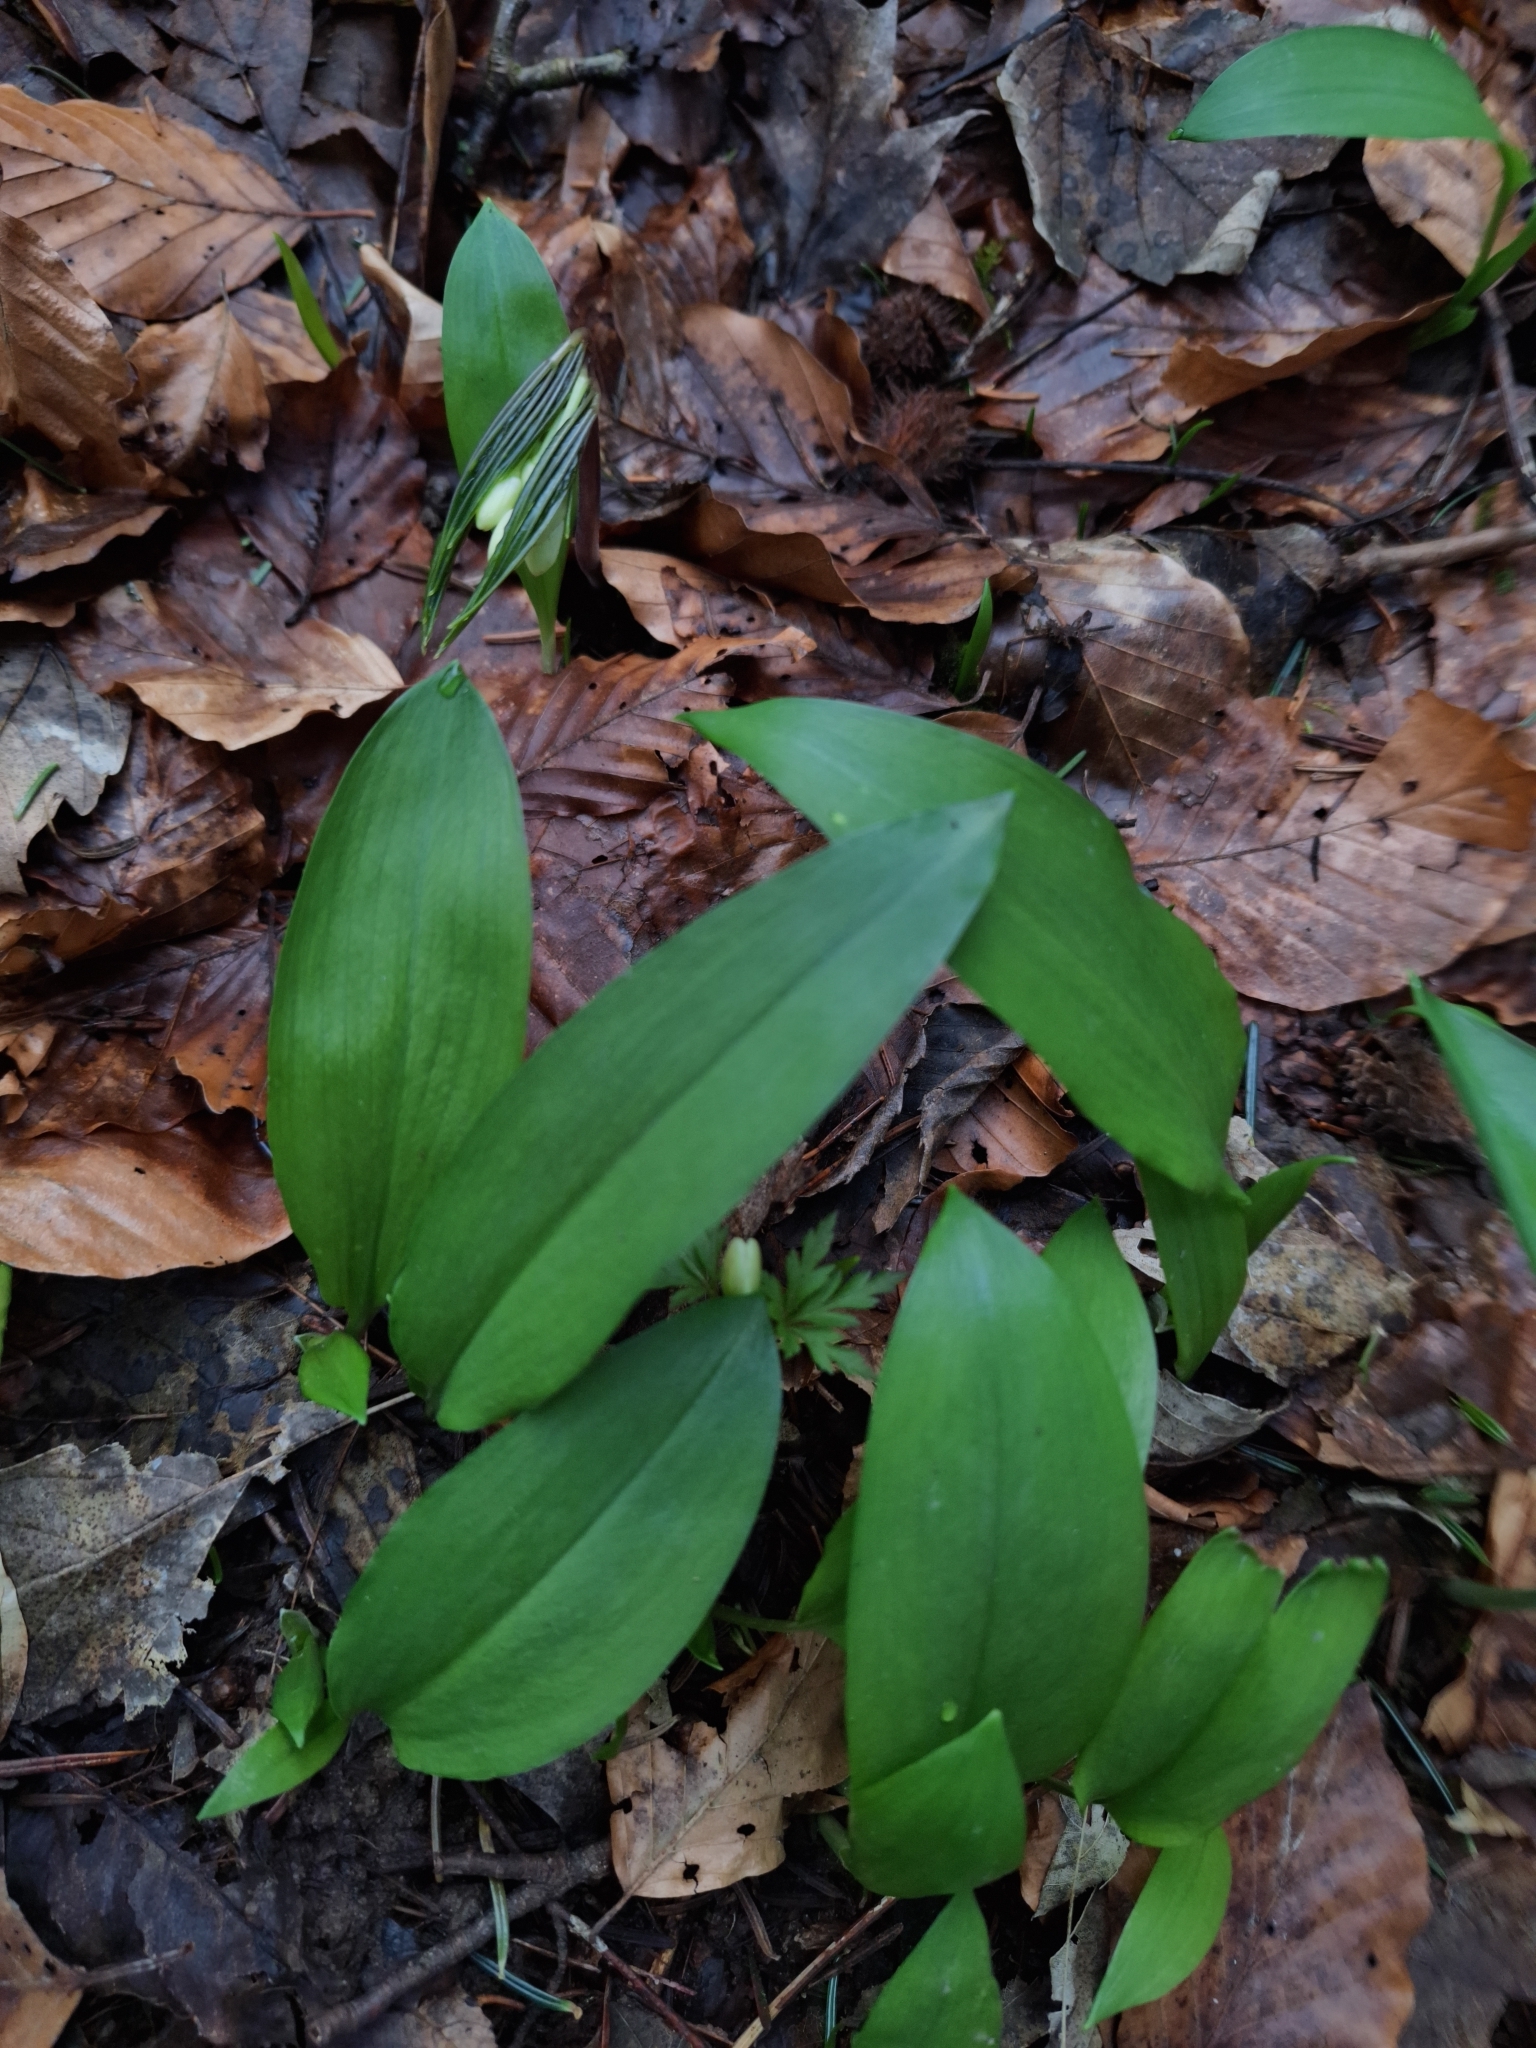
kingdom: Plantae
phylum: Tracheophyta
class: Liliopsida
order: Asparagales
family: Amaryllidaceae
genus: Allium
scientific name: Allium ursinum
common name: Ramsons
